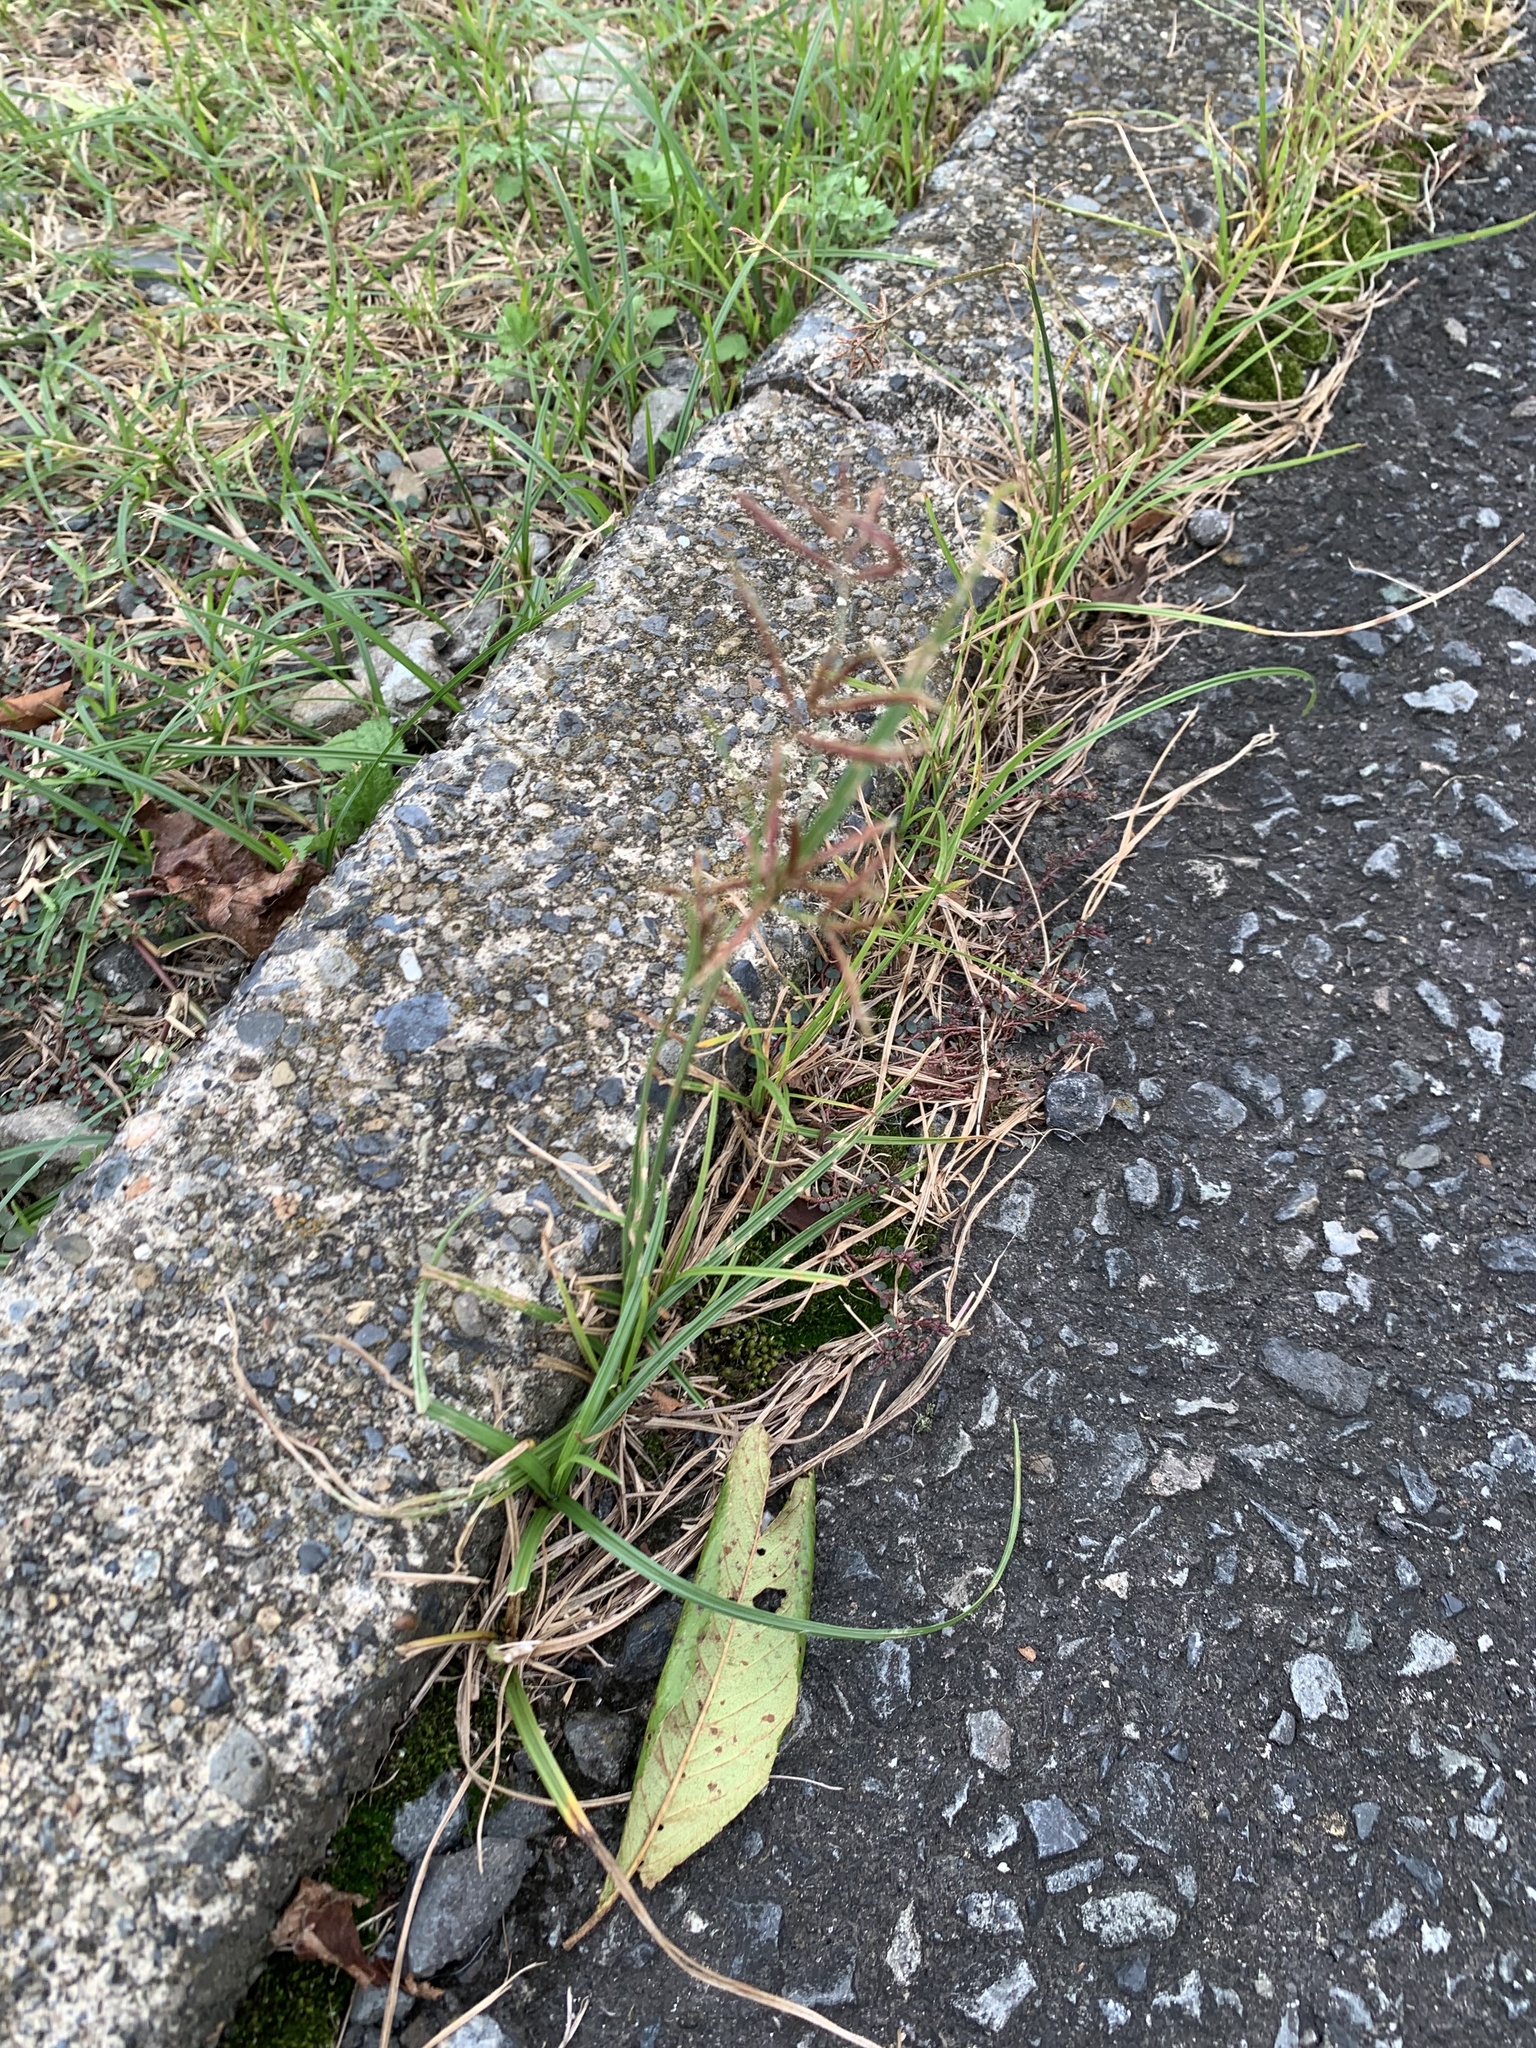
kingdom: Plantae
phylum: Tracheophyta
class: Liliopsida
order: Poales
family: Cyperaceae
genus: Cyperus
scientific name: Cyperus rotundus
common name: Nutgrass
